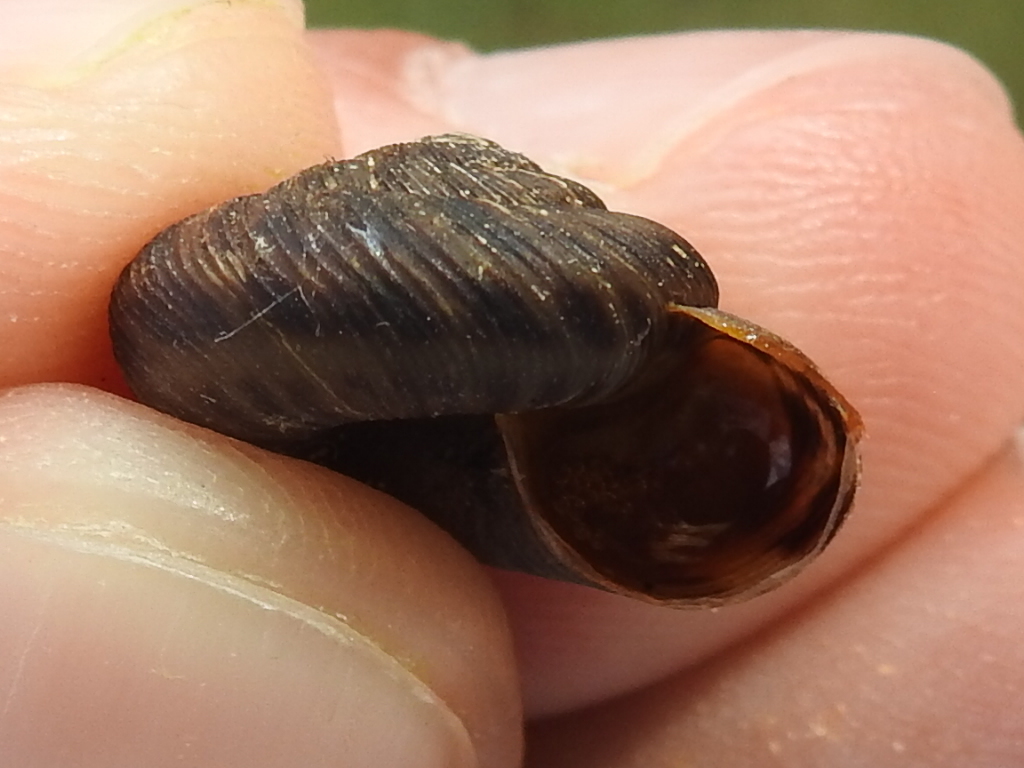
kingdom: Animalia
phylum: Mollusca
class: Gastropoda
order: Stylommatophora
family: Discidae
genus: Anguispira
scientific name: Anguispira strongylodes
